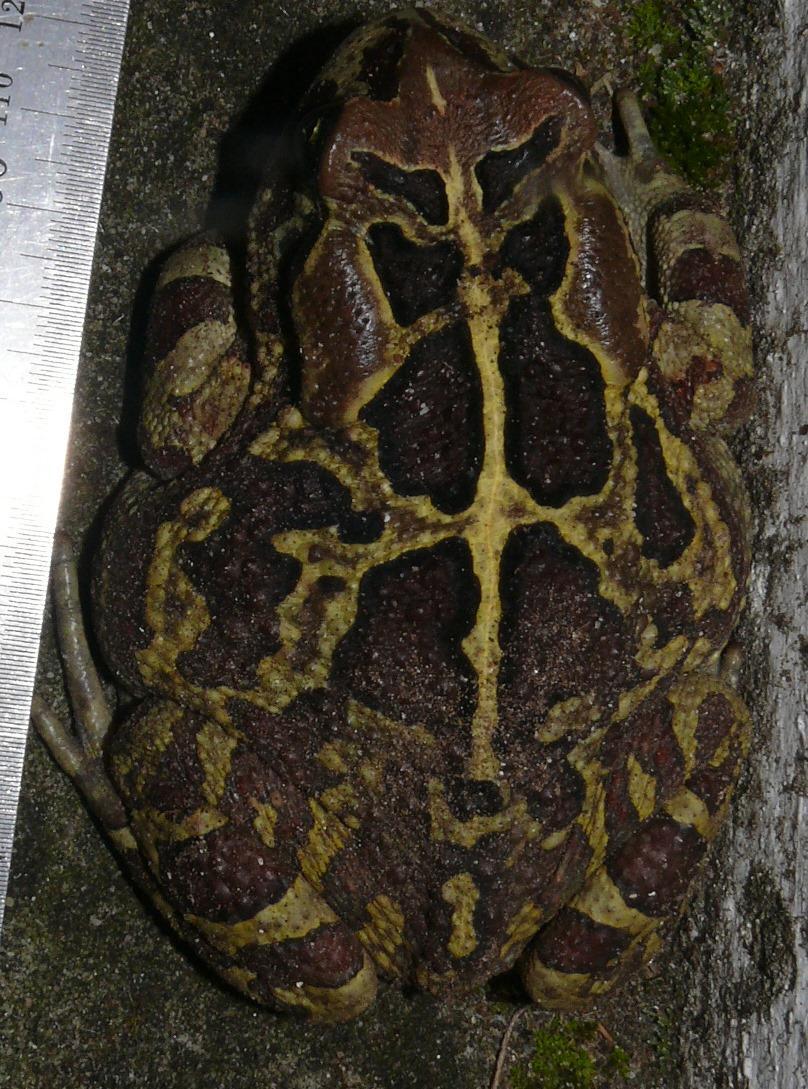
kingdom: Animalia
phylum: Chordata
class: Amphibia
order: Anura
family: Bufonidae
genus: Sclerophrys
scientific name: Sclerophrys pantherina
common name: Panther toad
